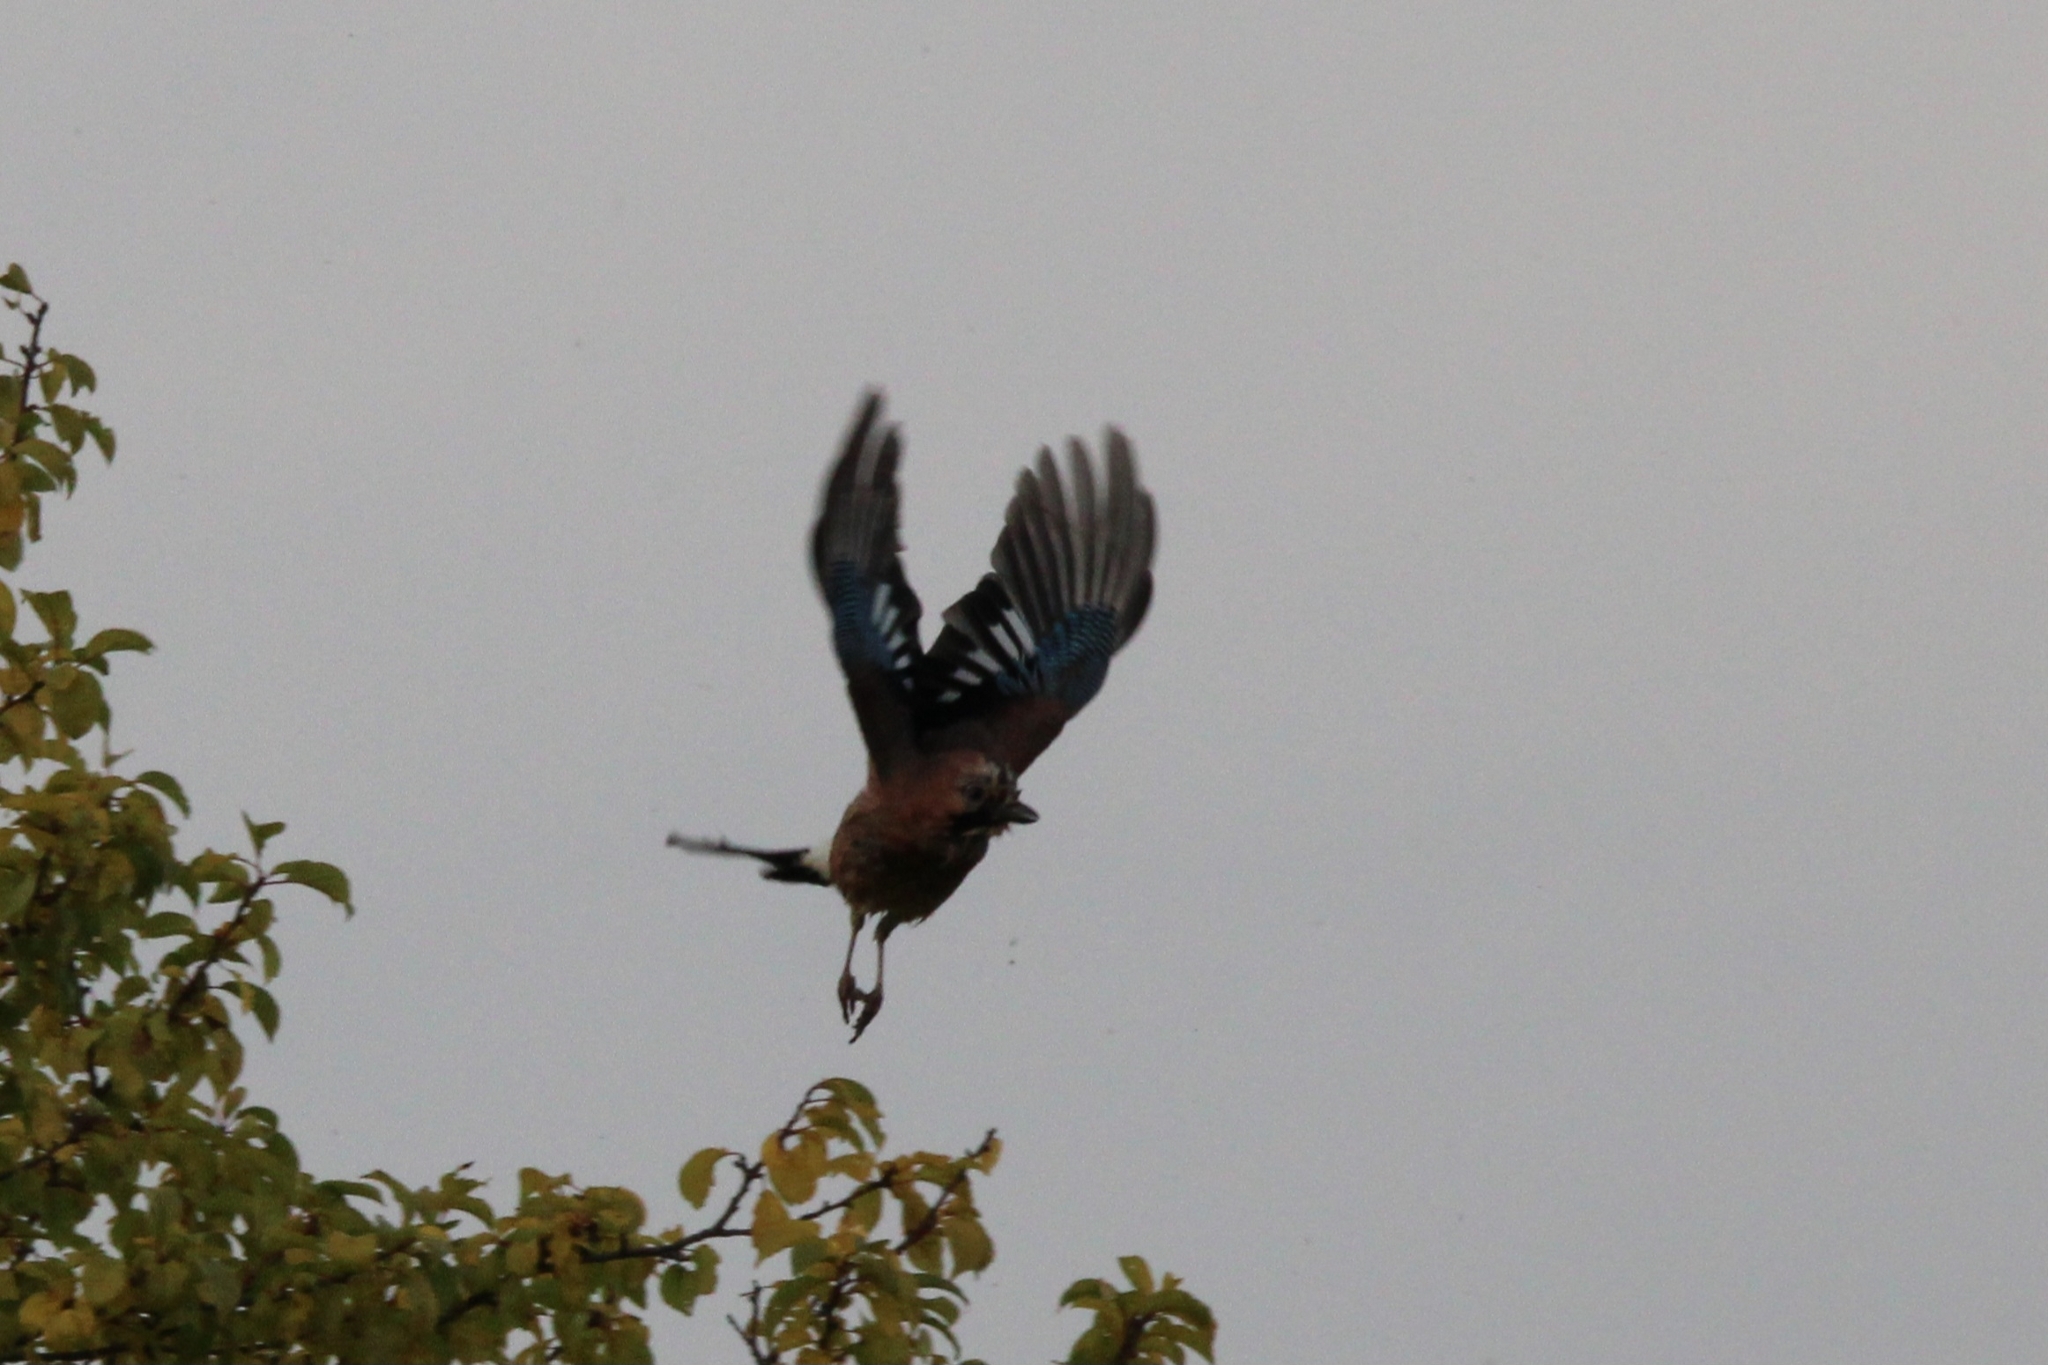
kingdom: Animalia
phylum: Chordata
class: Aves
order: Passeriformes
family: Corvidae
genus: Garrulus
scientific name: Garrulus glandarius
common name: Eurasian jay
